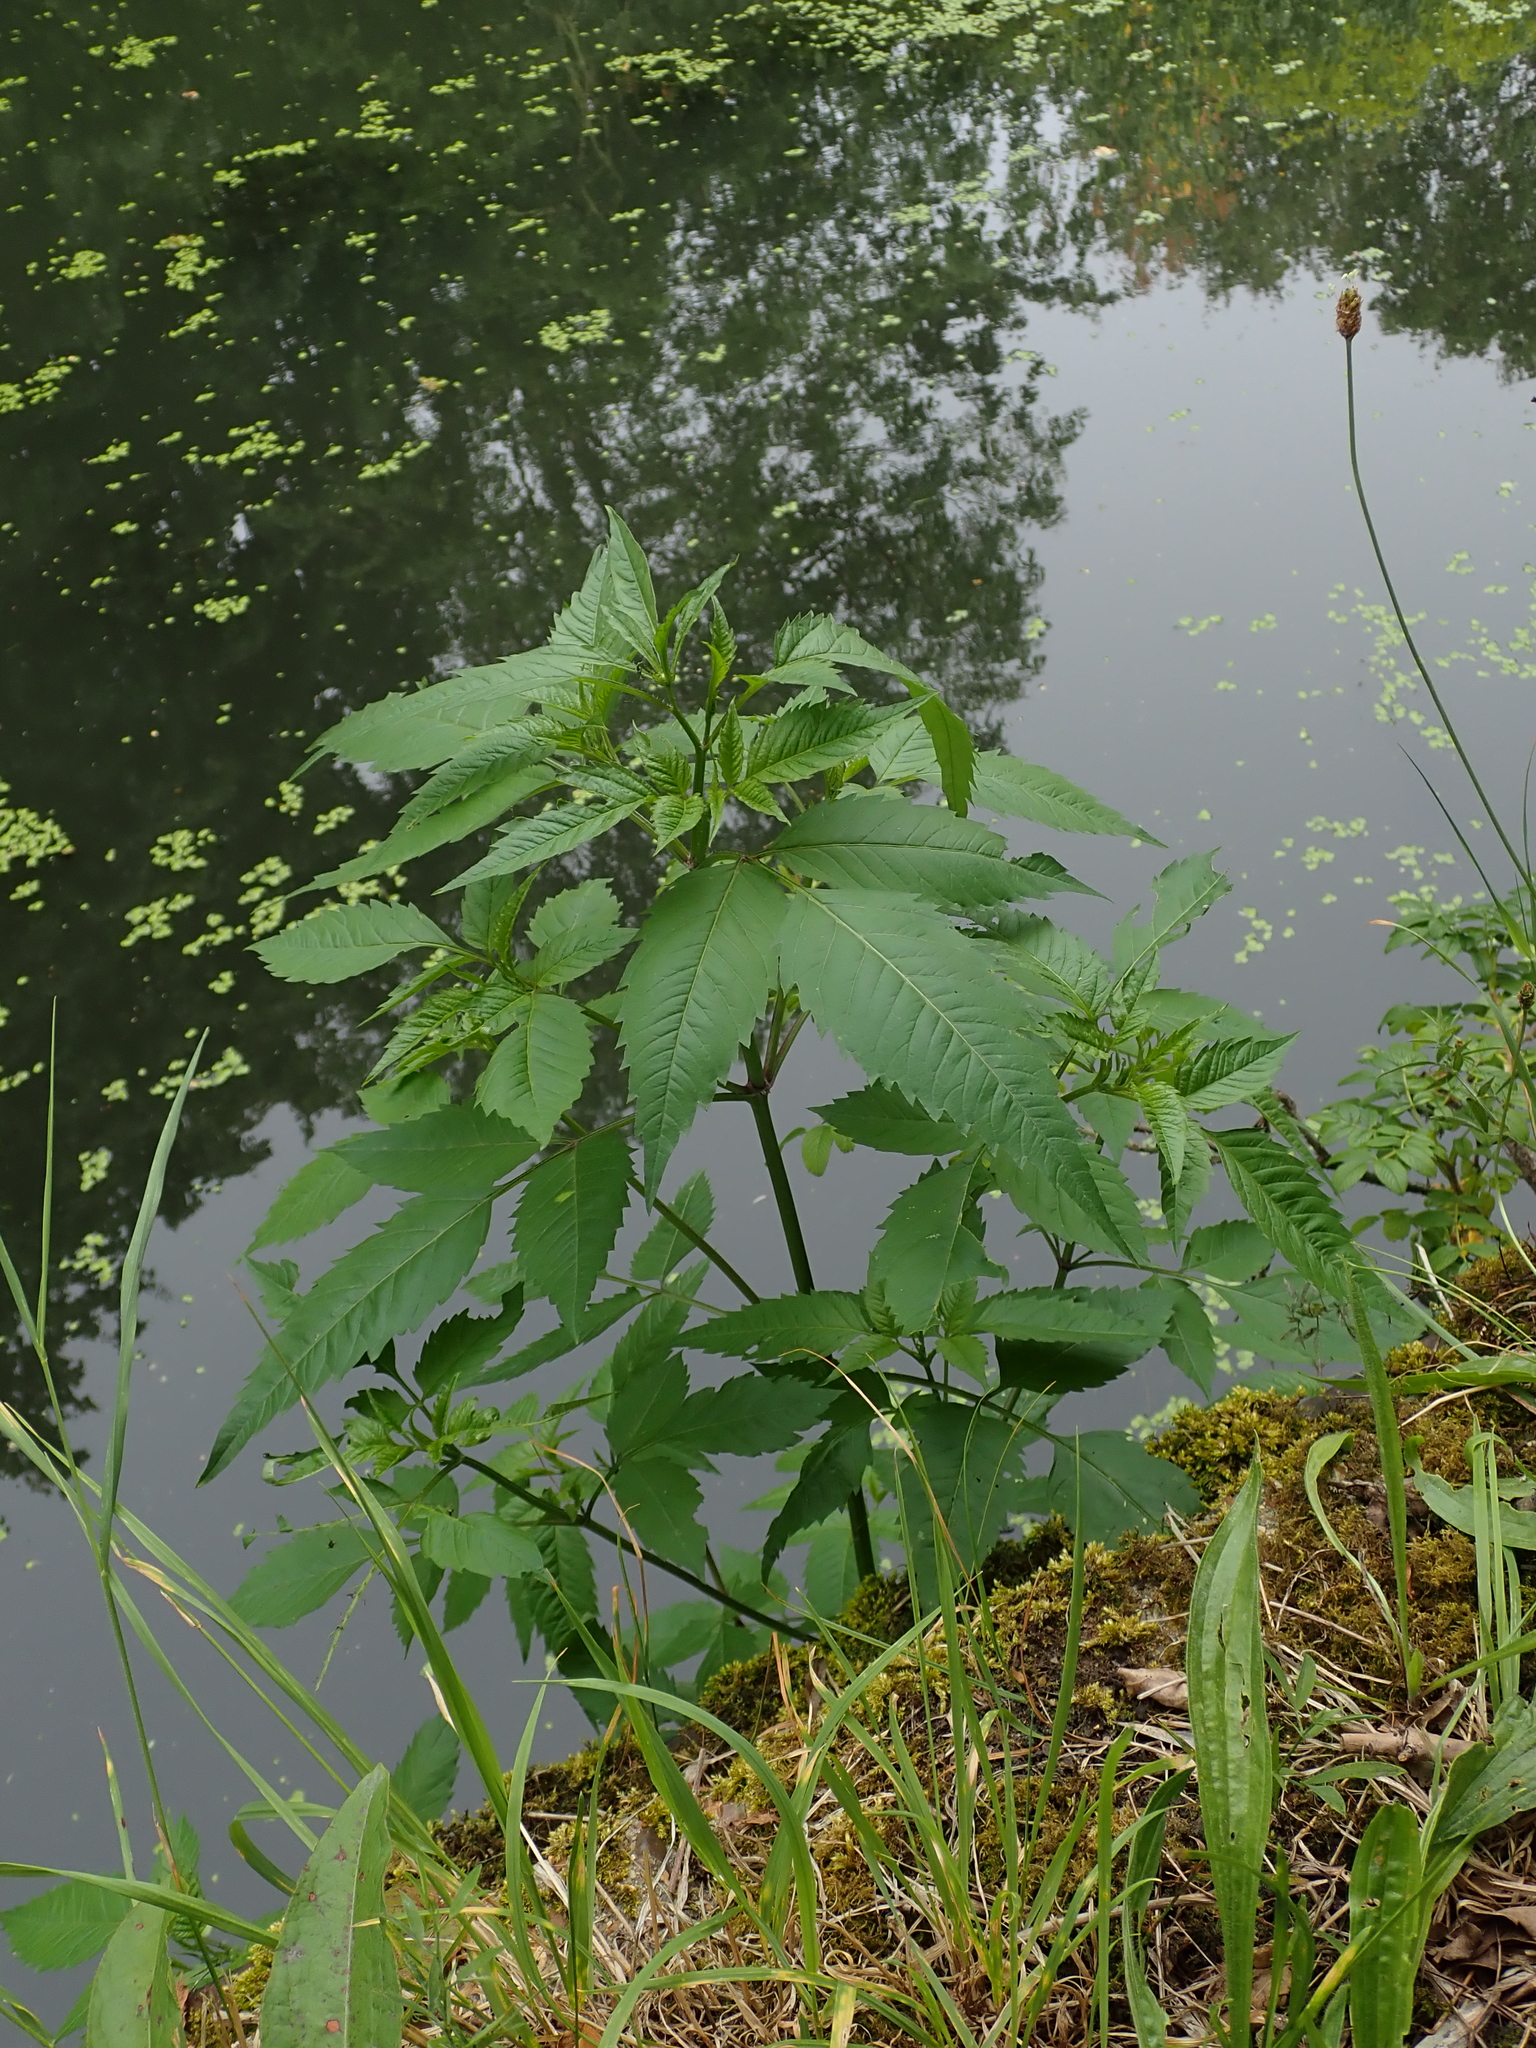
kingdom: Plantae
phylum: Tracheophyta
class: Magnoliopsida
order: Asterales
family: Asteraceae
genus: Bidens
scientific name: Bidens frondosa
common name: Beggarticks
